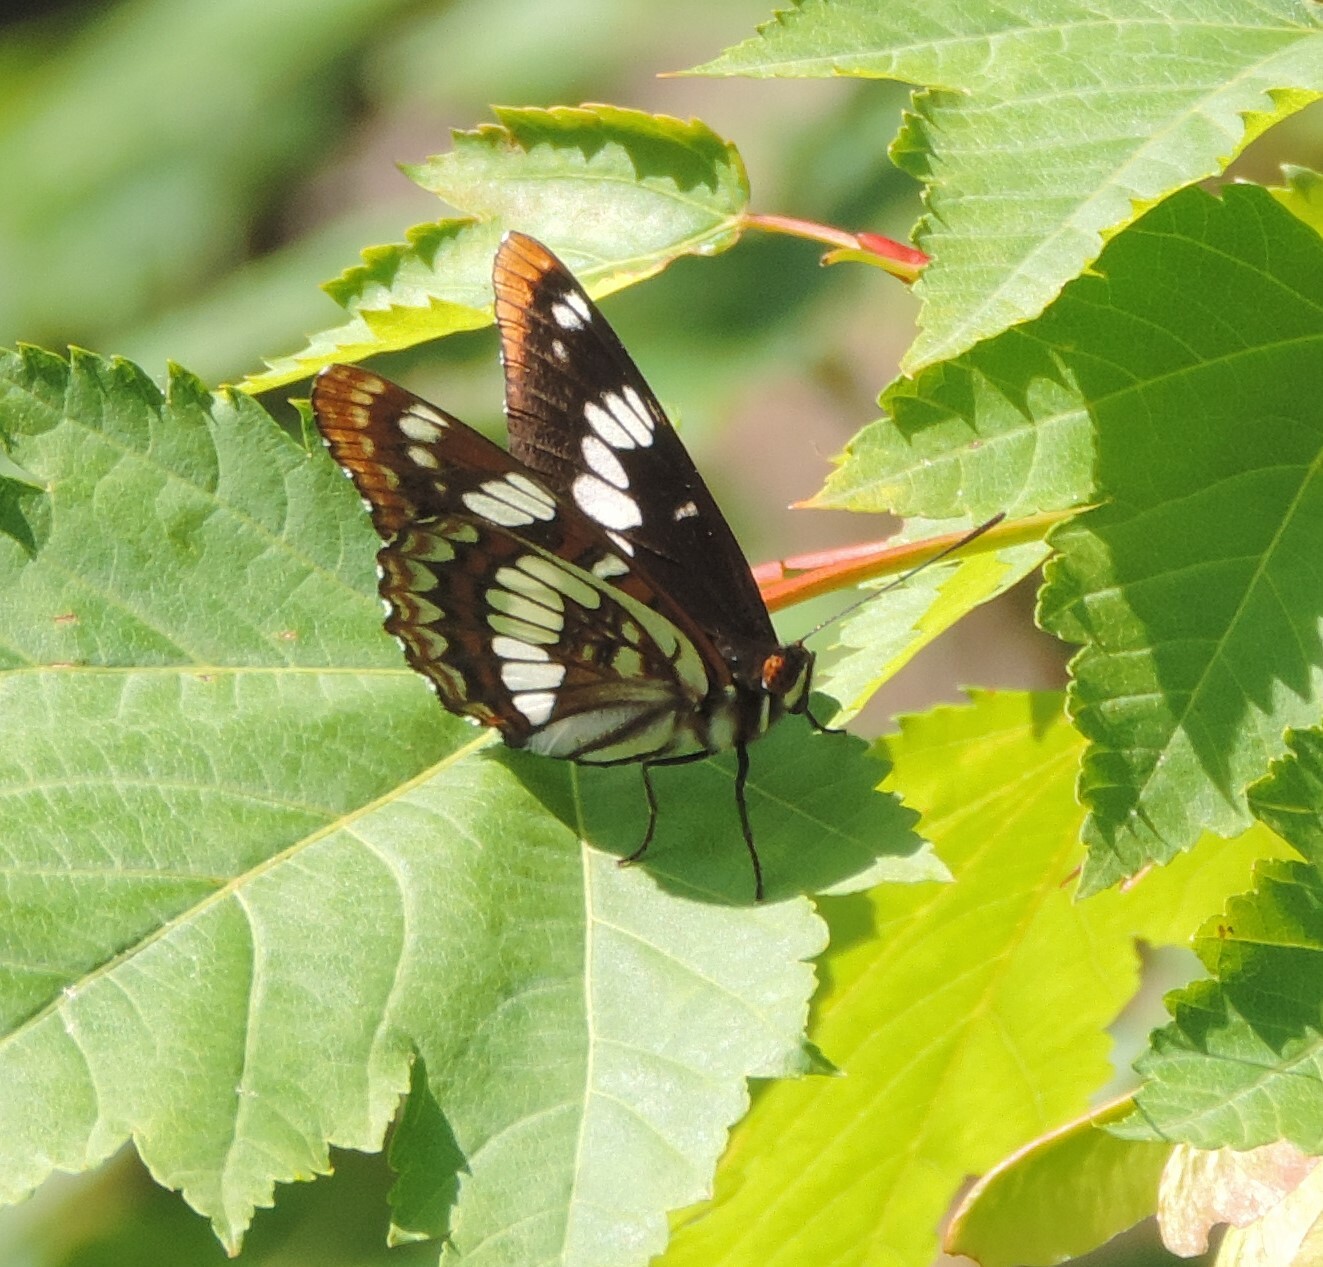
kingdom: Animalia
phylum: Arthropoda
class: Insecta
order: Lepidoptera
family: Nymphalidae
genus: Limenitis
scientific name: Limenitis lorquini
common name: Lorquin's admiral
